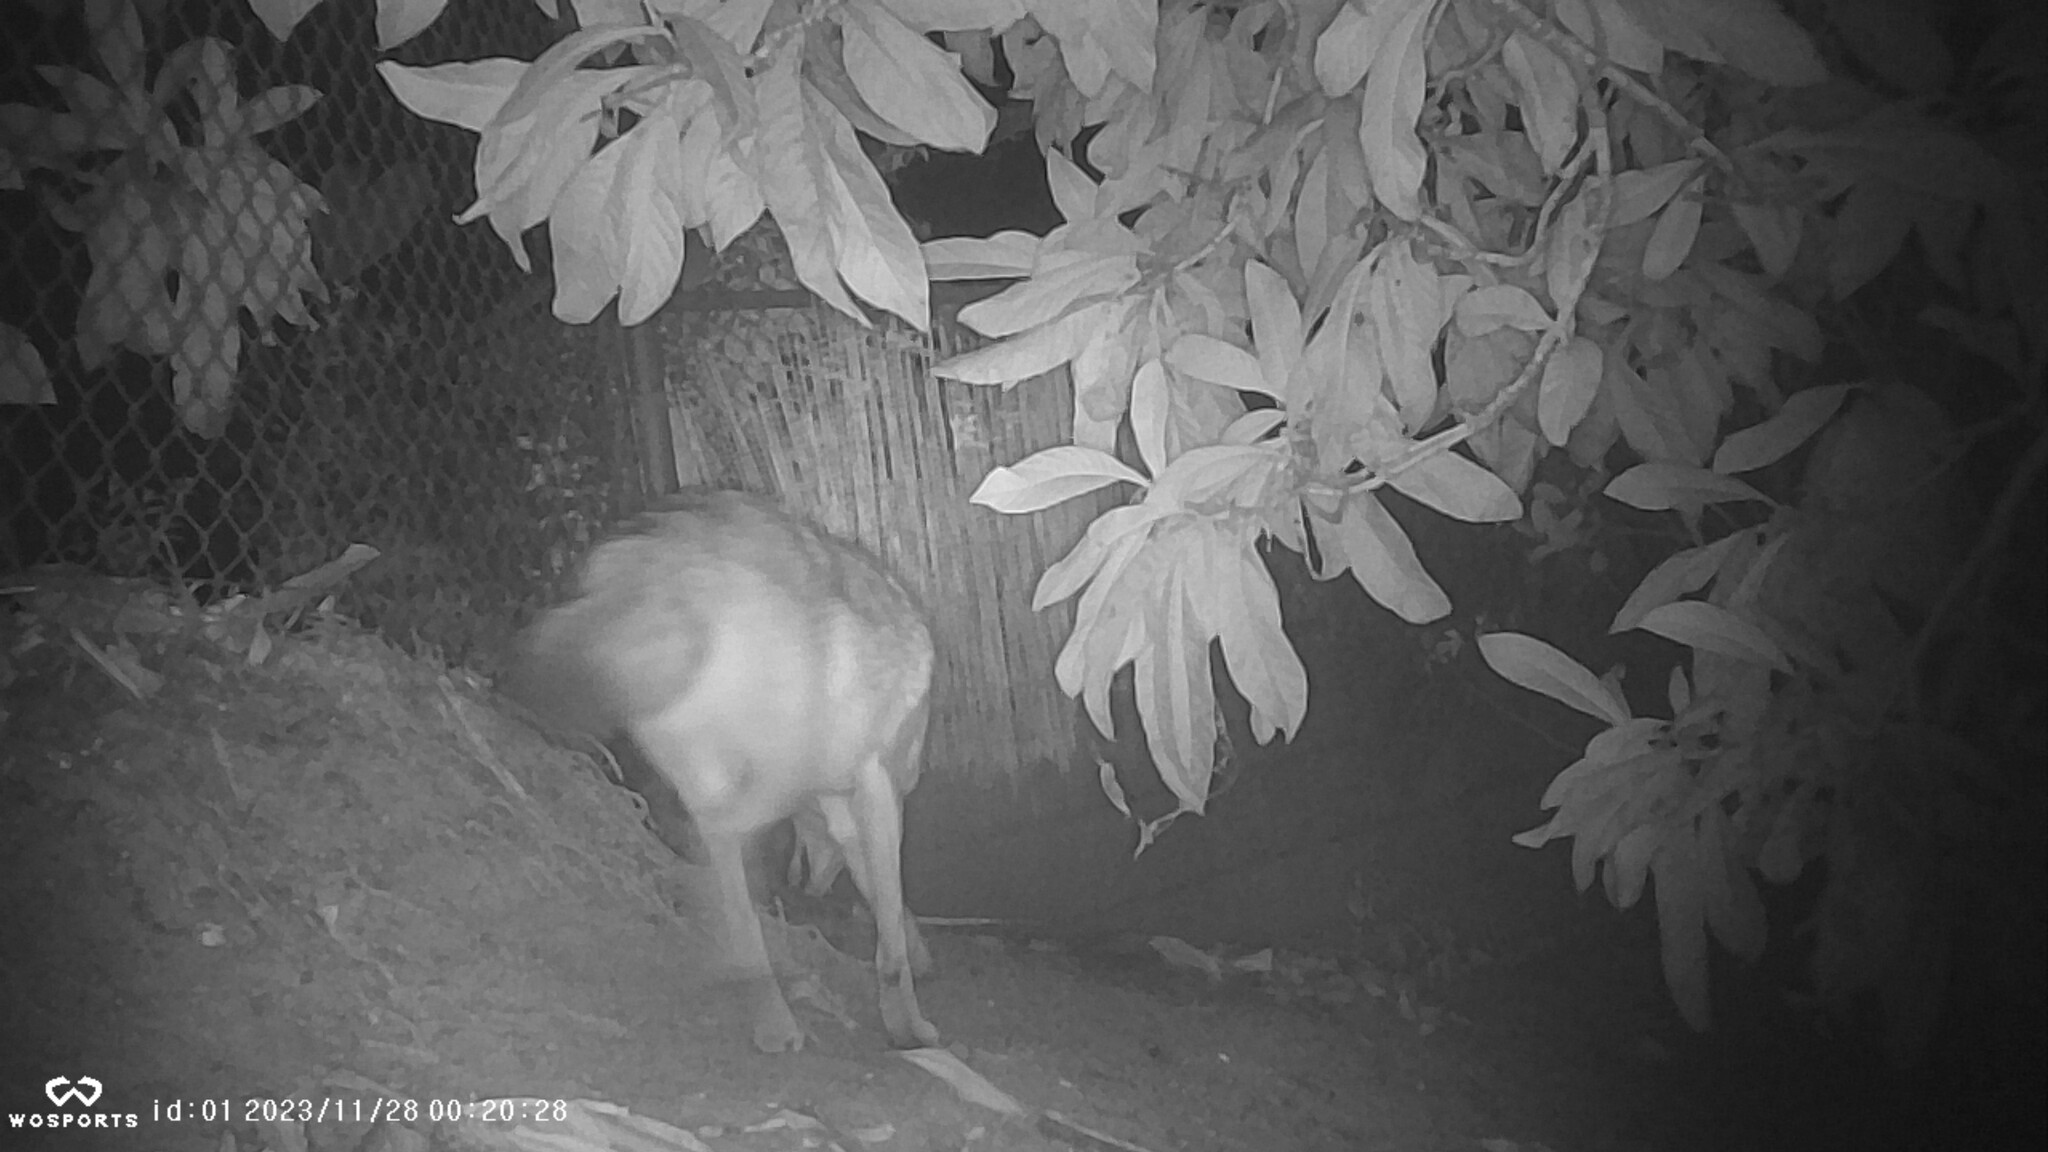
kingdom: Animalia
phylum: Chordata
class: Mammalia
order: Carnivora
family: Canidae
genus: Canis
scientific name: Canis latrans
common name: Coyote
